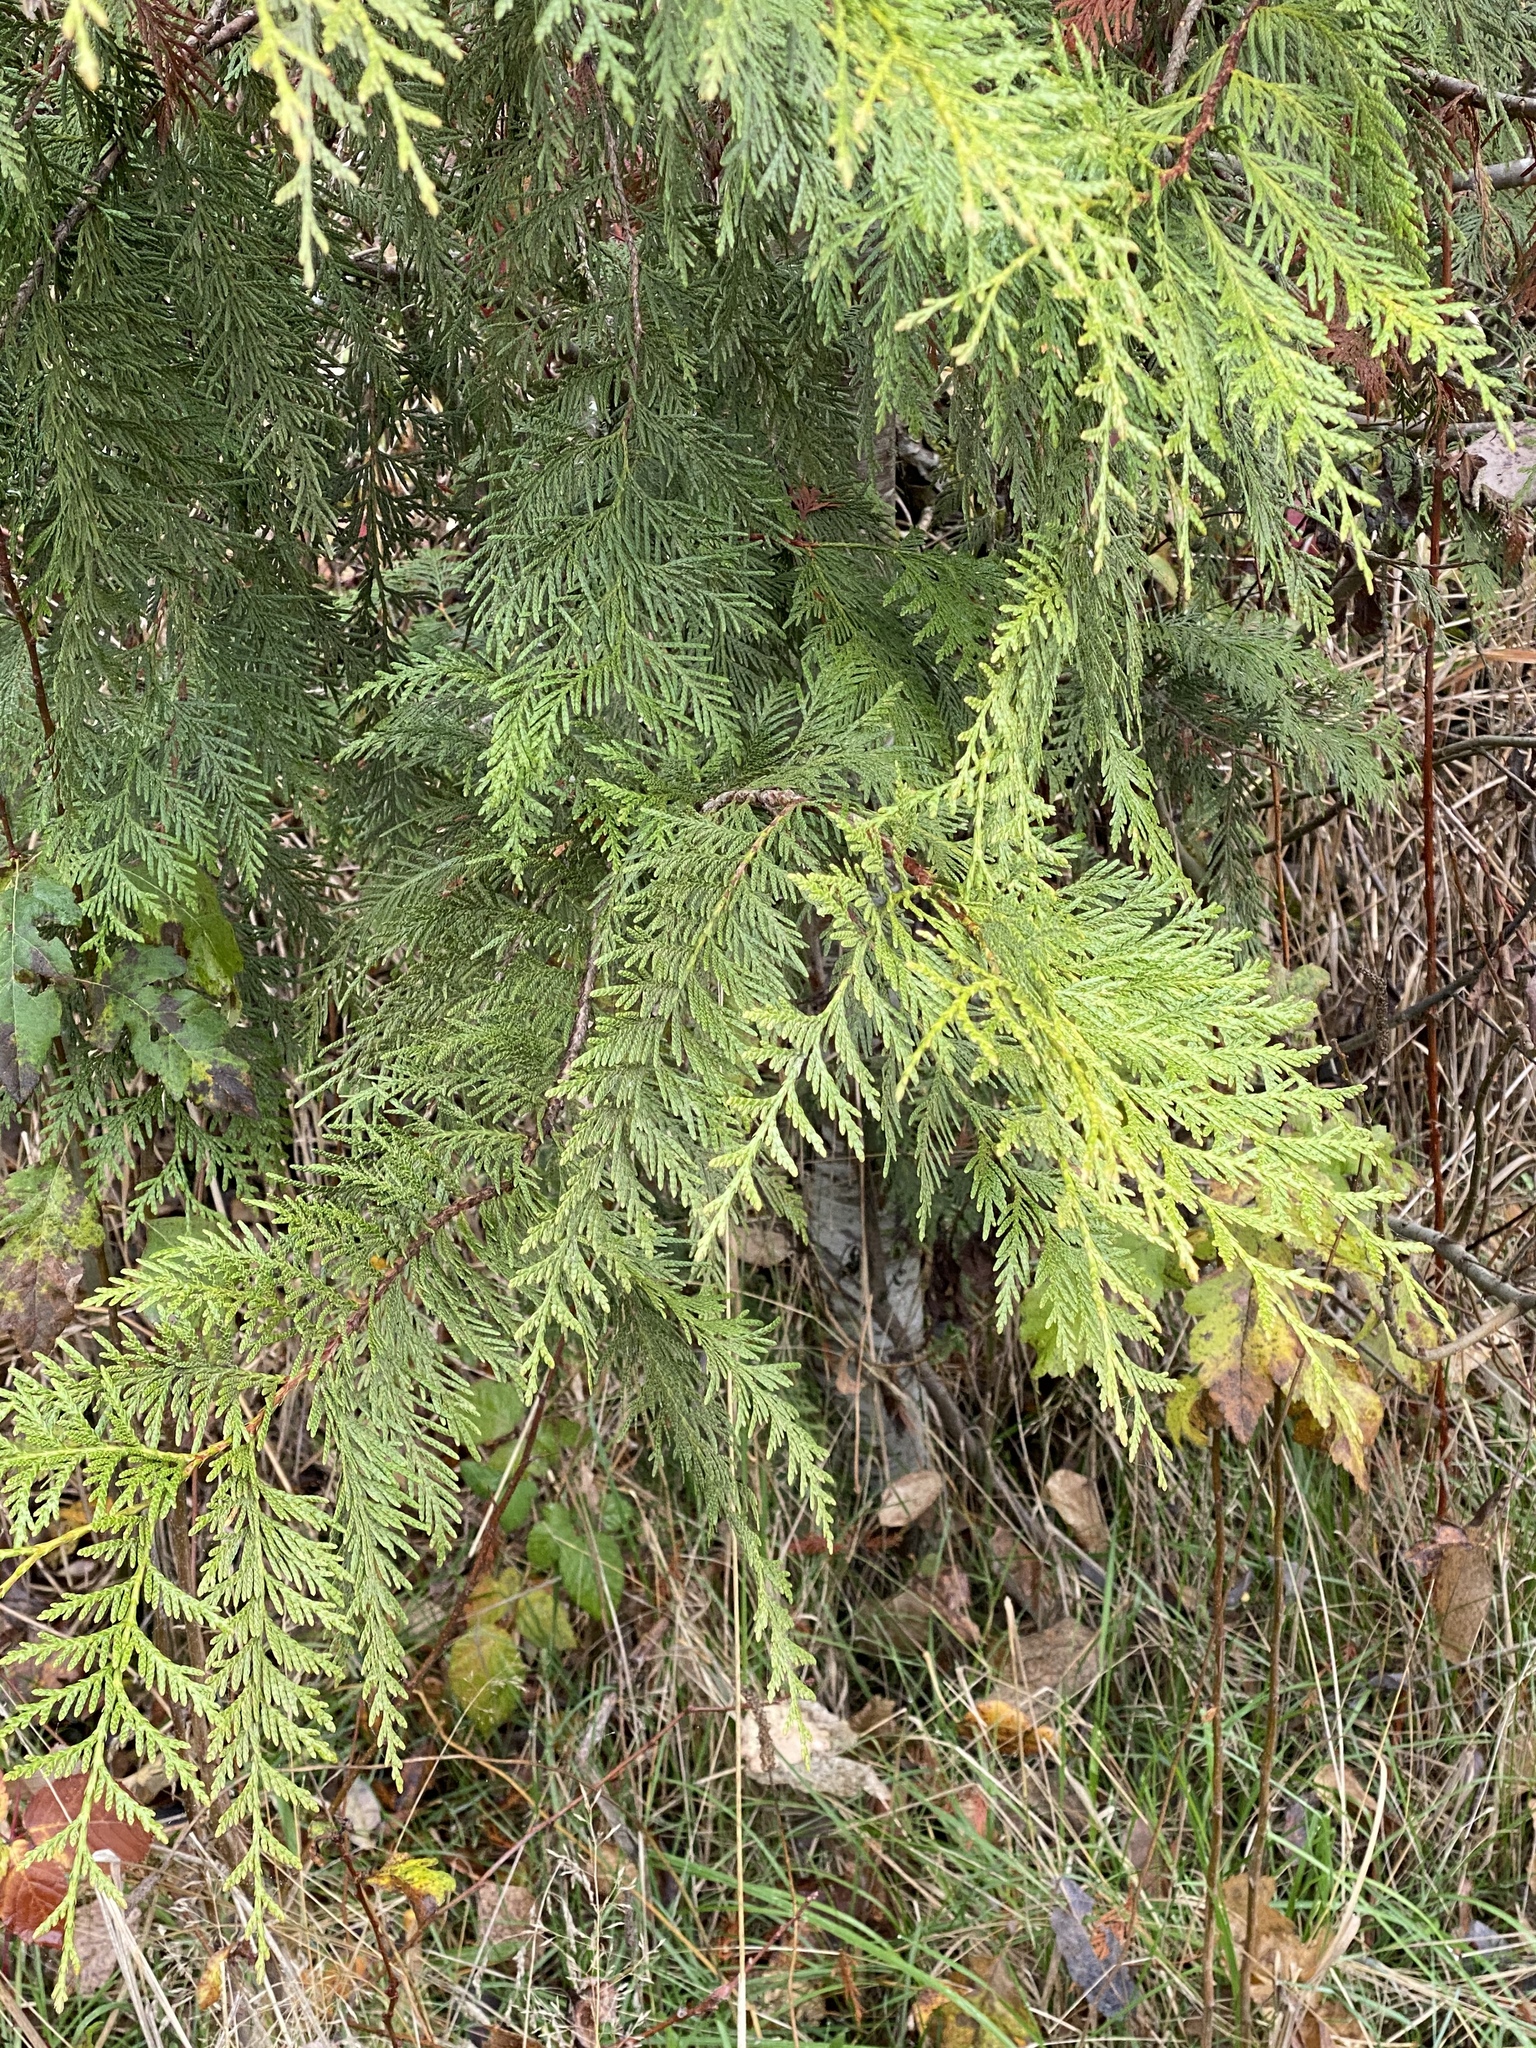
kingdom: Plantae
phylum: Tracheophyta
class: Pinopsida
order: Pinales
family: Cupressaceae
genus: Thuja
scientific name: Thuja plicata
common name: Western red-cedar
